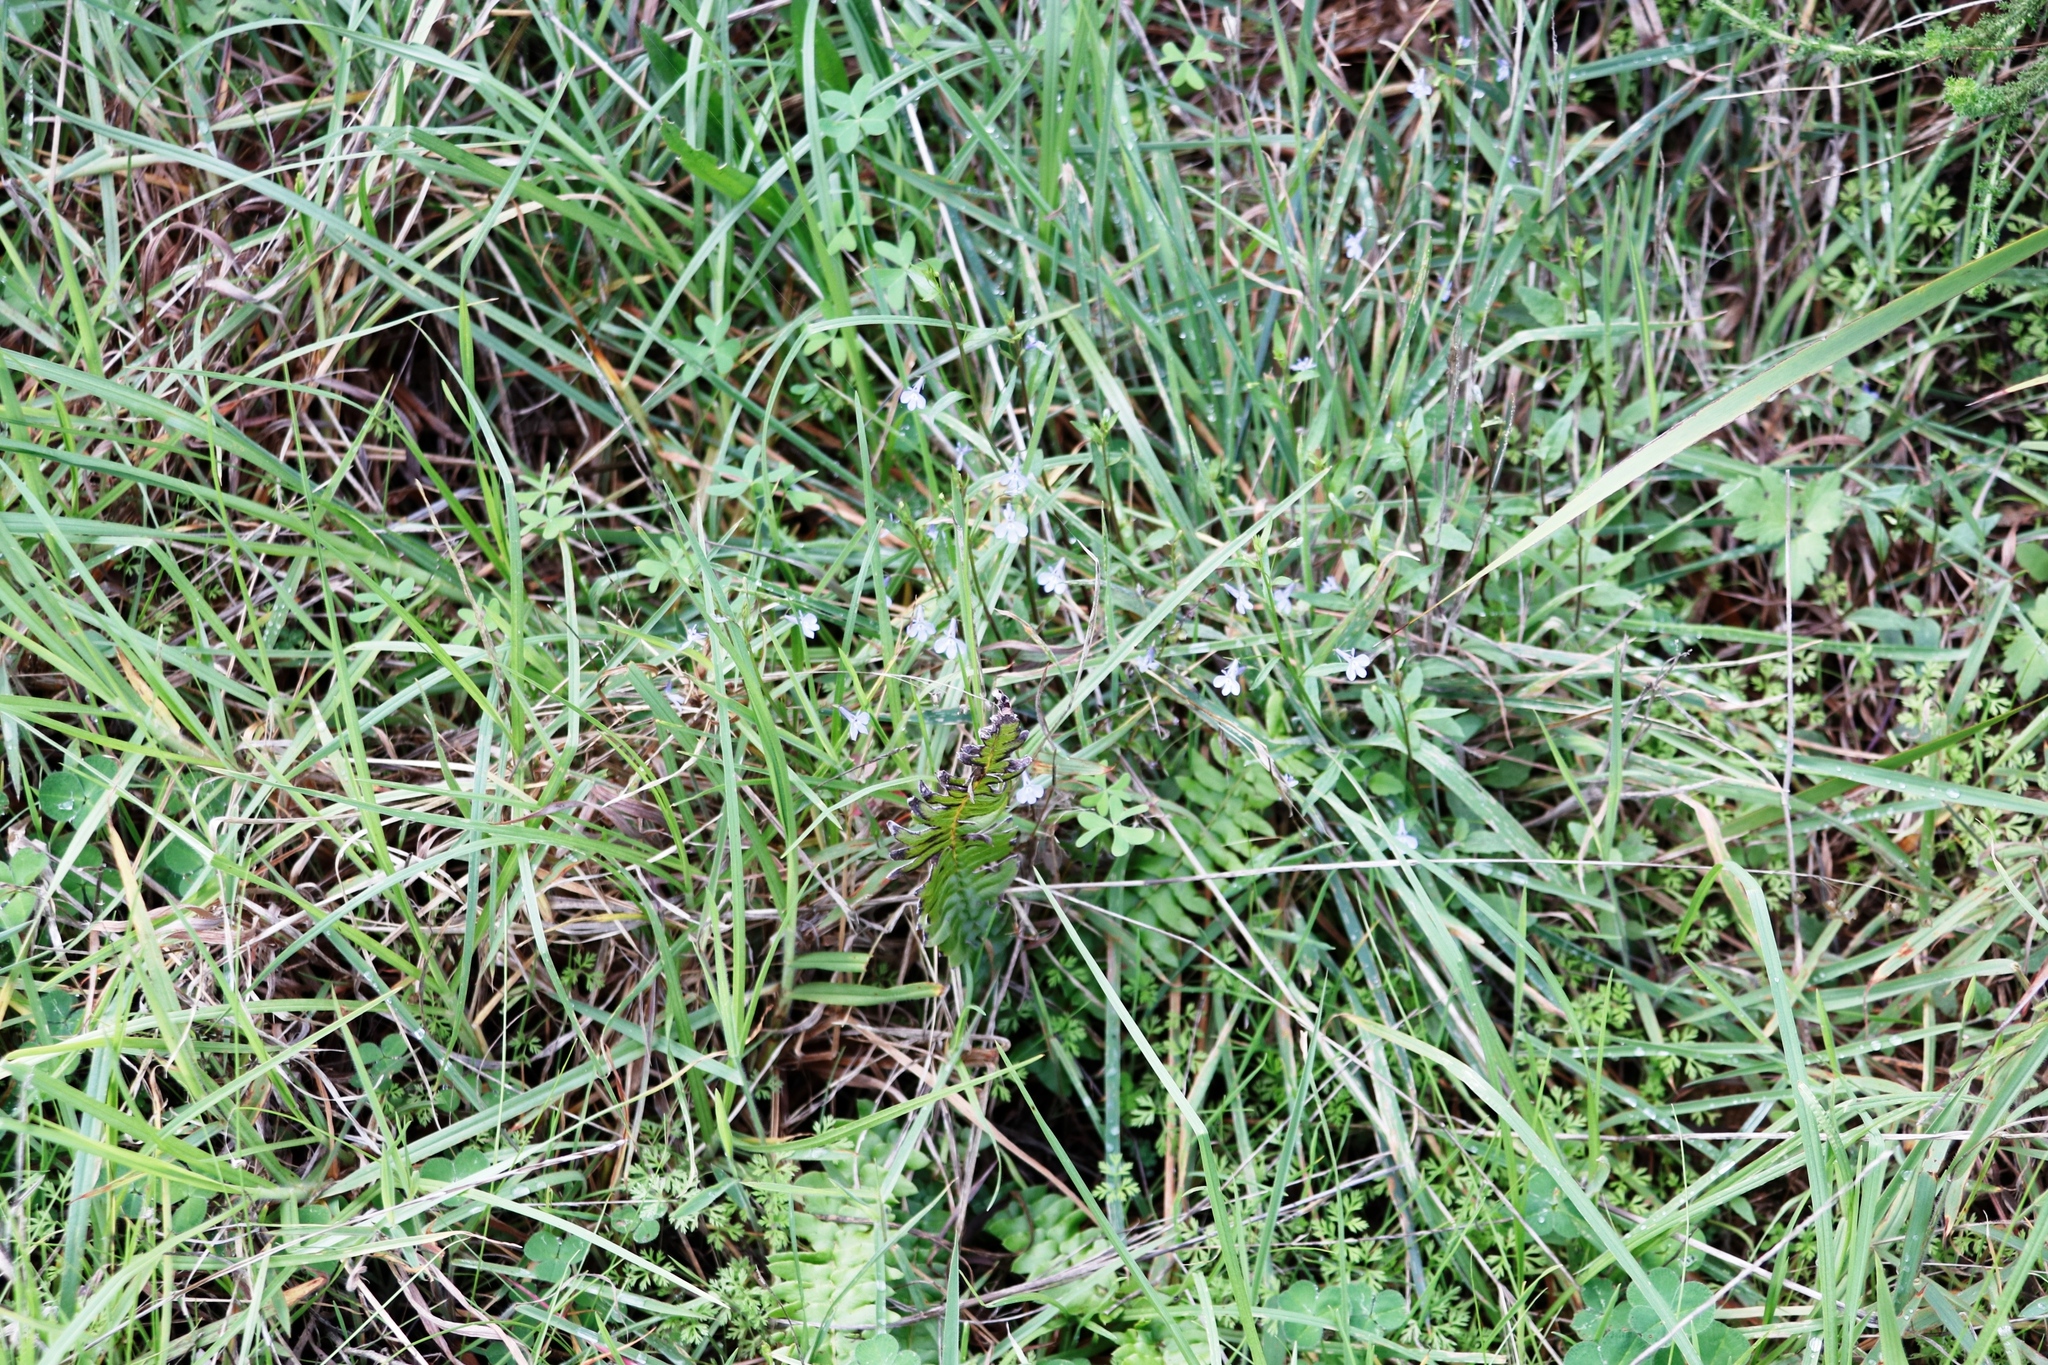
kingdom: Plantae
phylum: Tracheophyta
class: Magnoliopsida
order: Asterales
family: Campanulaceae
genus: Lobelia
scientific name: Lobelia erinus
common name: Edging lobelia
